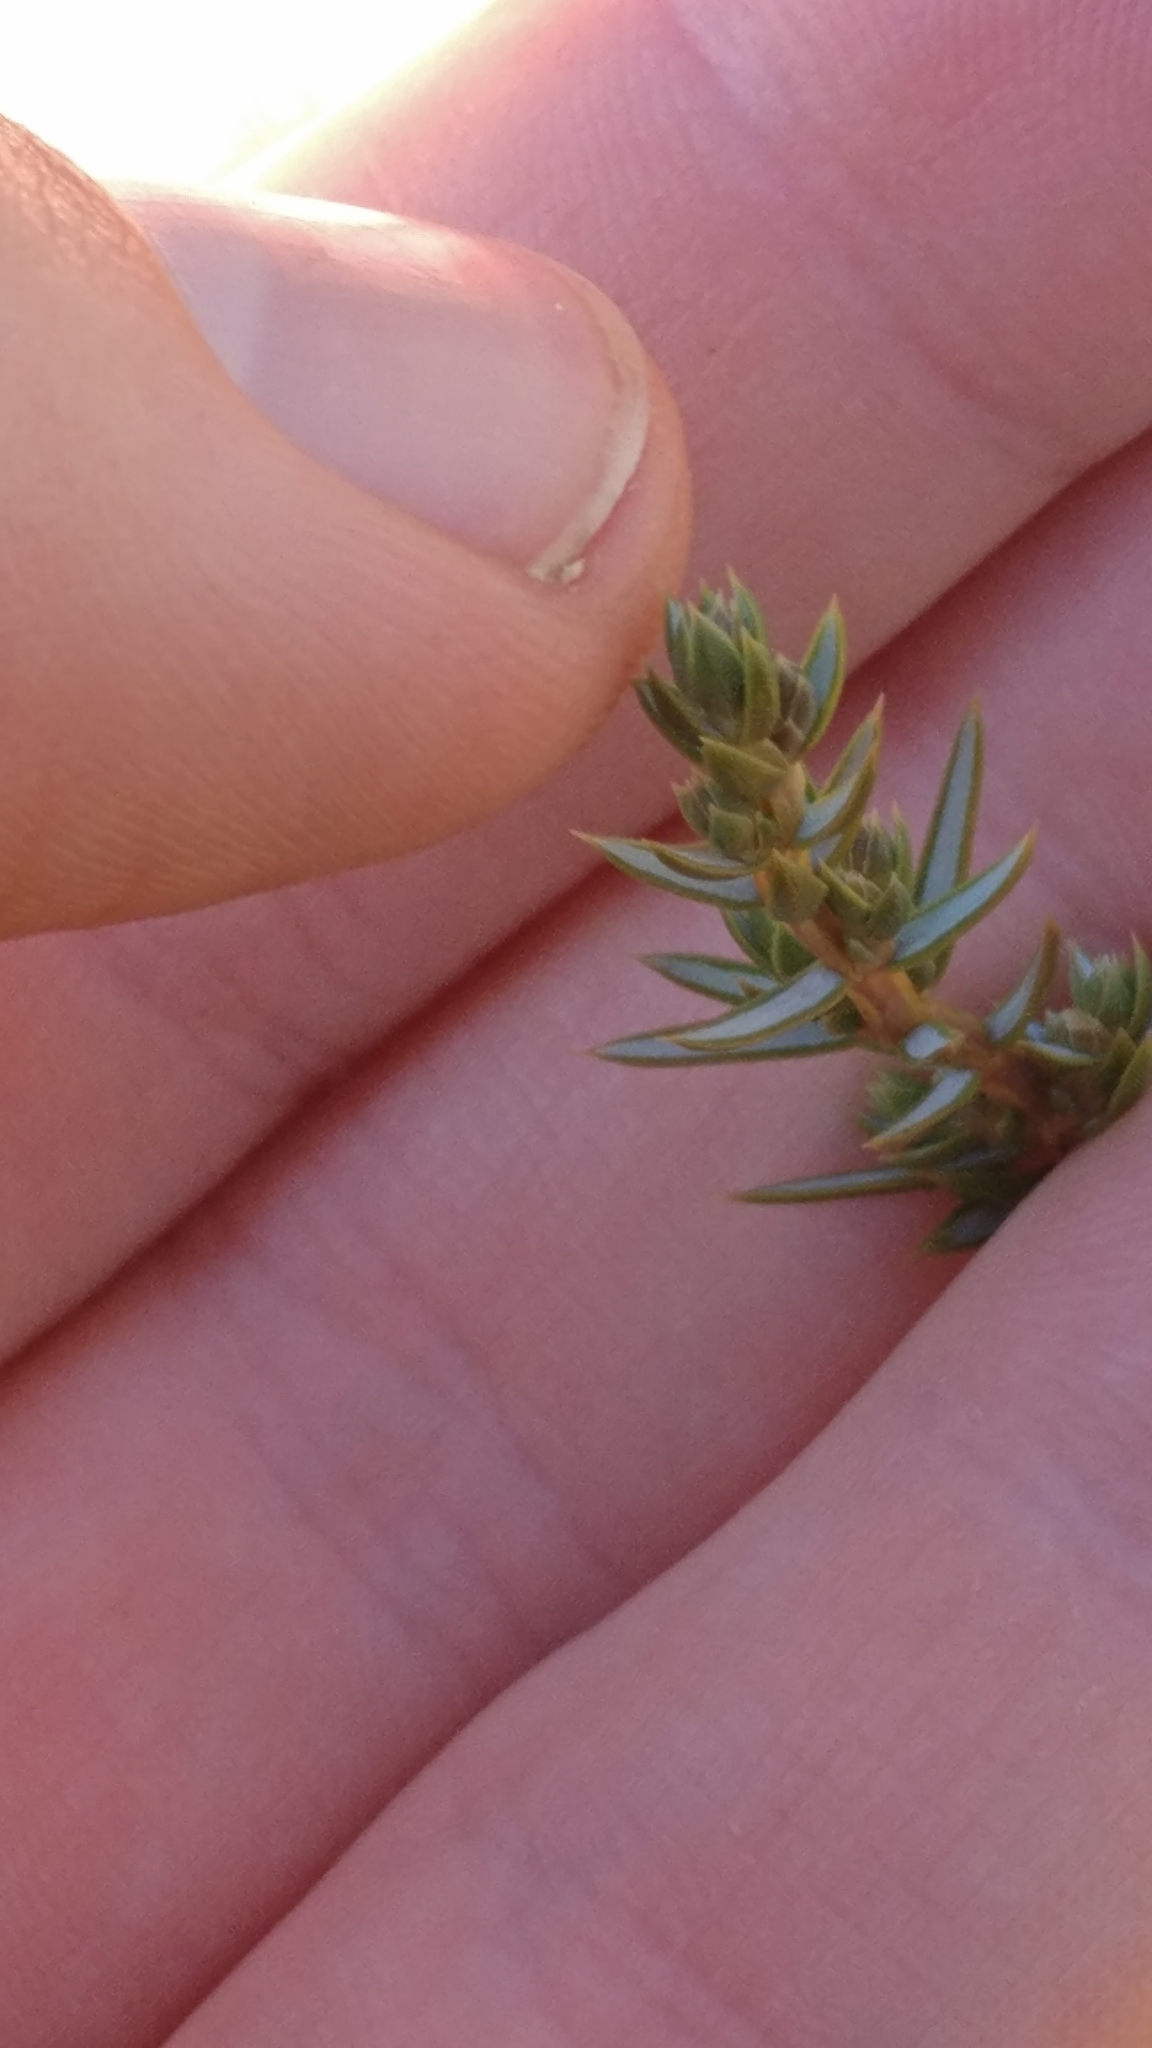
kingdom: Plantae
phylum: Tracheophyta
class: Pinopsida
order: Pinales
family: Cupressaceae
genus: Juniperus
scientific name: Juniperus communis
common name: Common juniper
